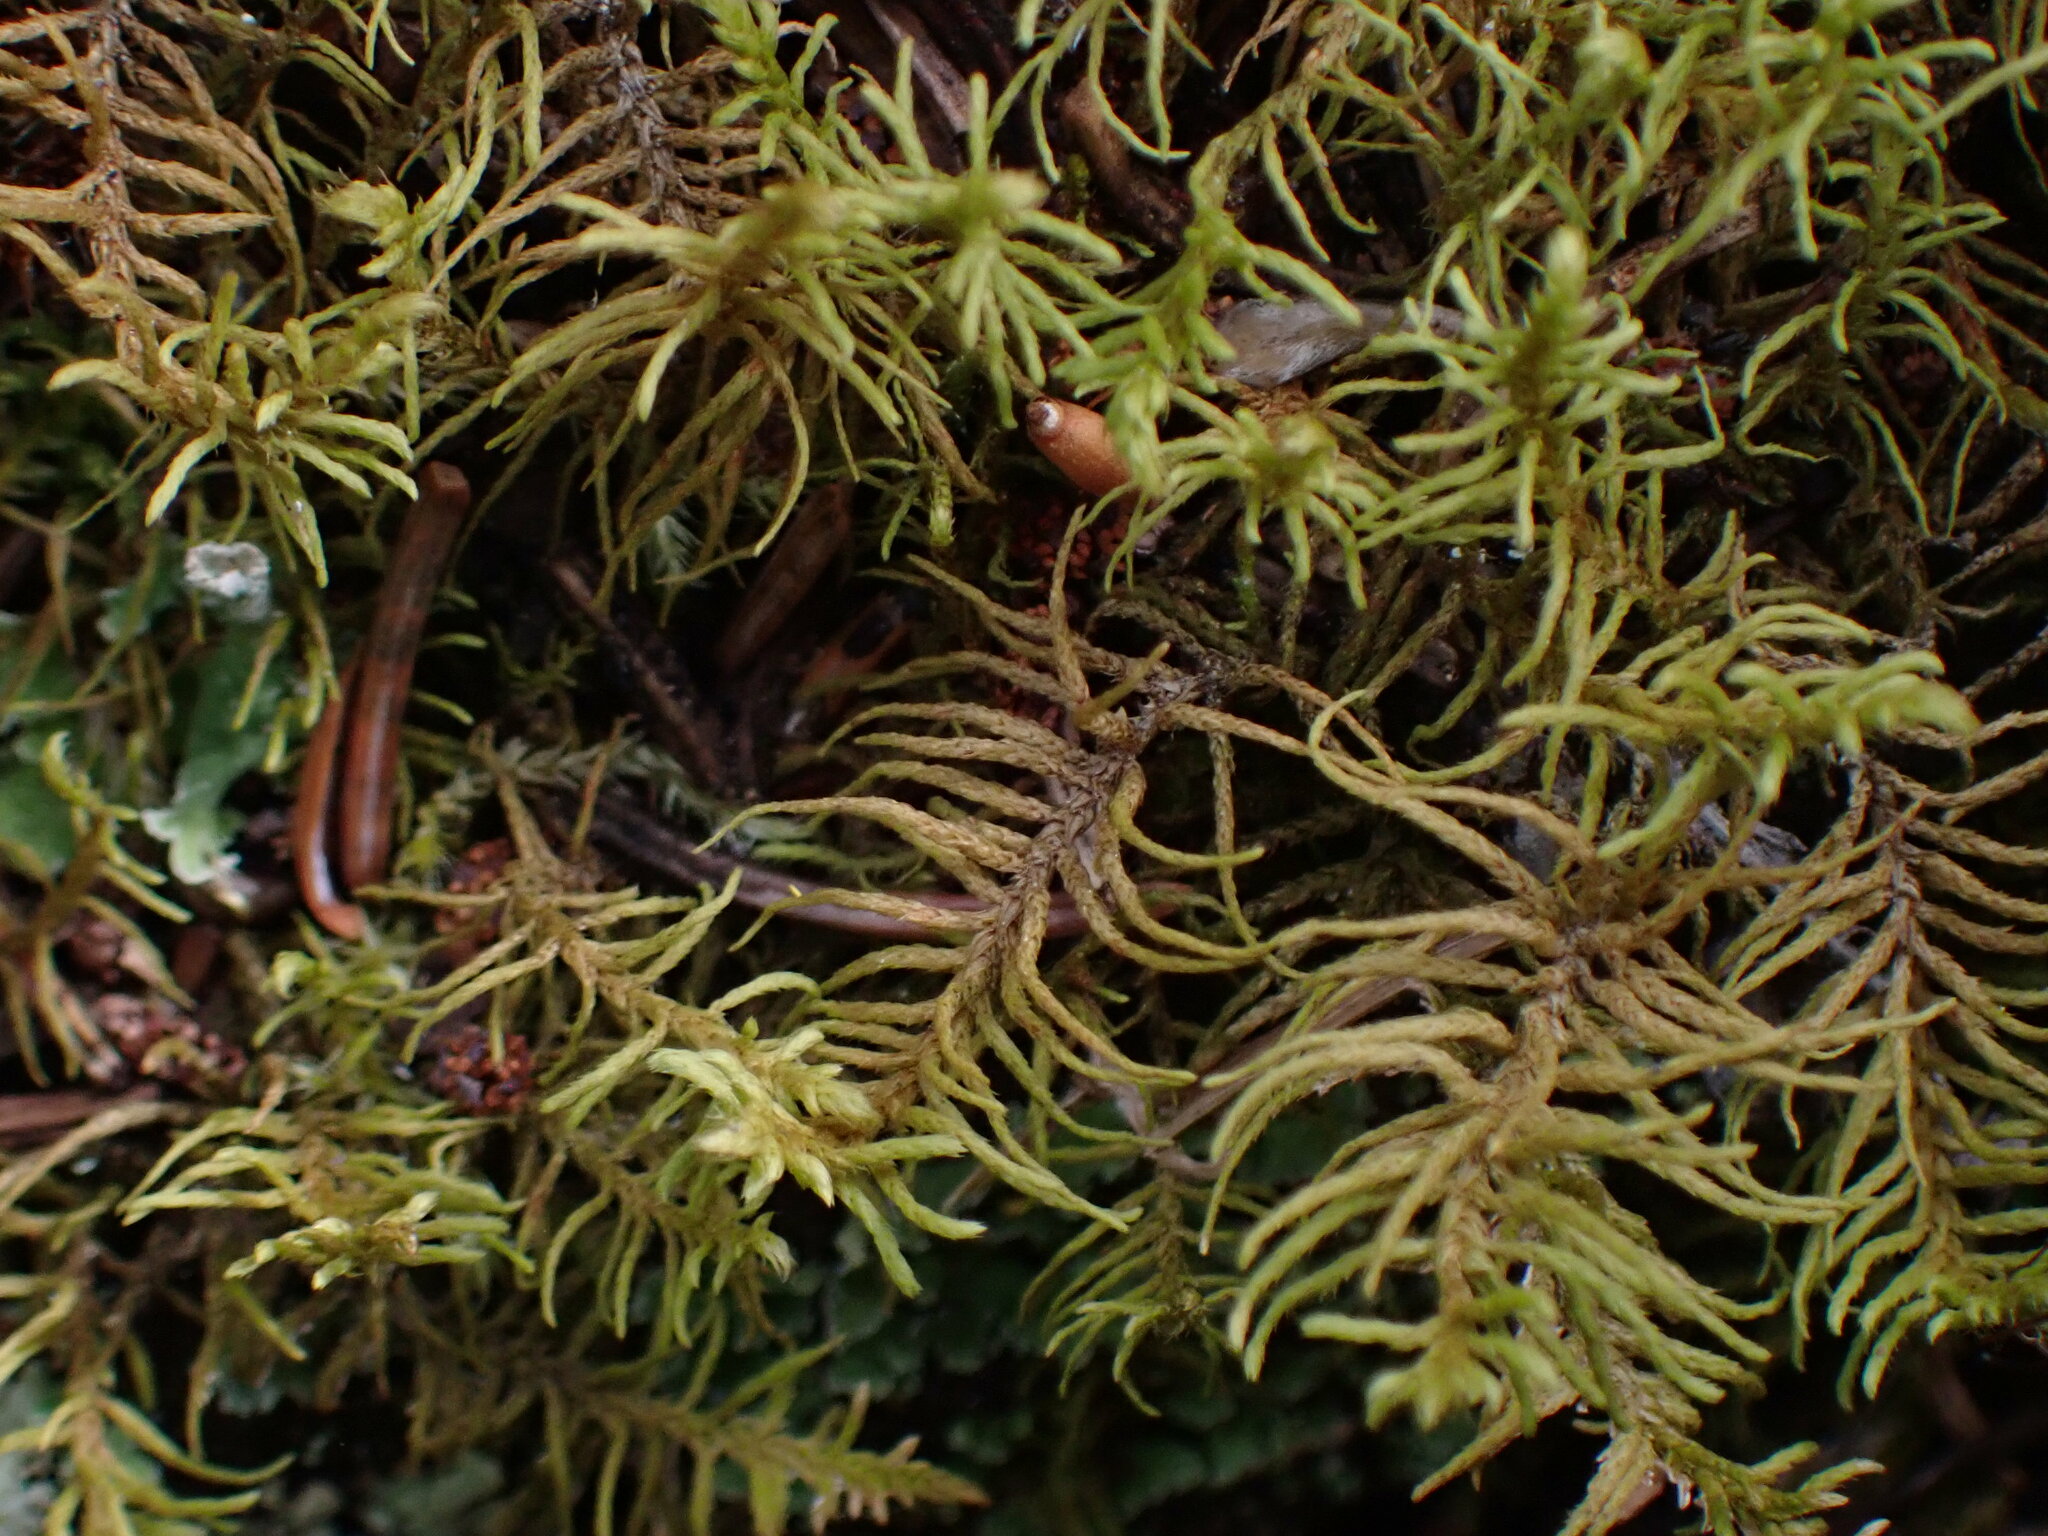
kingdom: Plantae
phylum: Bryophyta
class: Bryopsida
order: Hypnales
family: Thuidiaceae
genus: Abietinella
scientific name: Abietinella abietina
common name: Wiry fern moss
